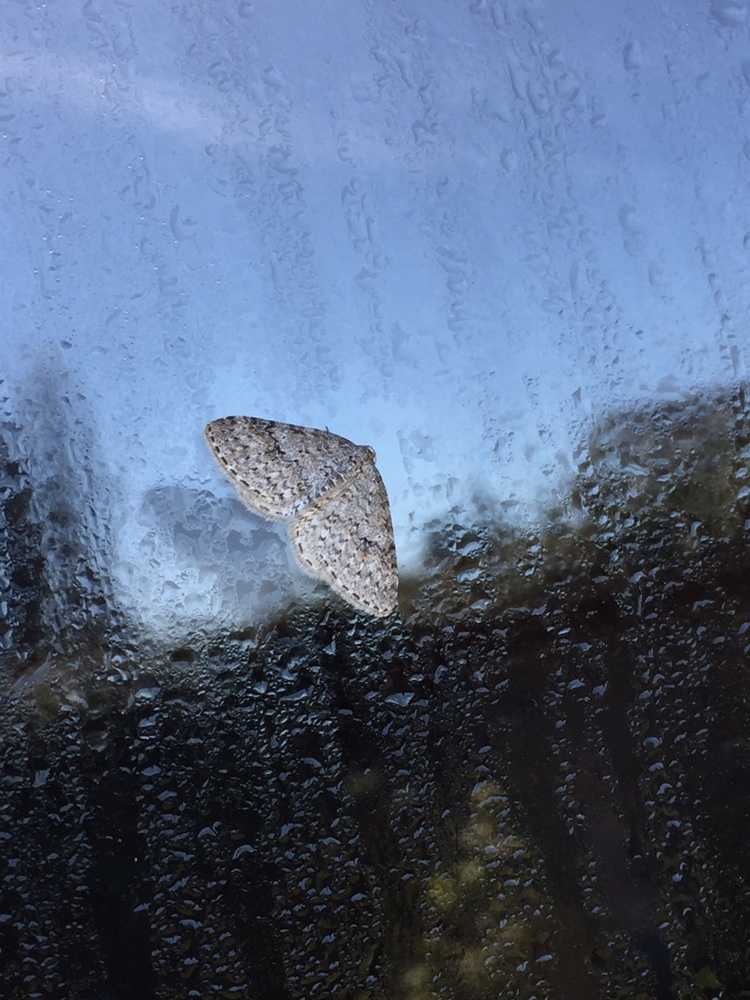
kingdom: Animalia
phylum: Arthropoda
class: Insecta
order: Lepidoptera
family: Geometridae
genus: Venusia
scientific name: Venusia pearsalli
